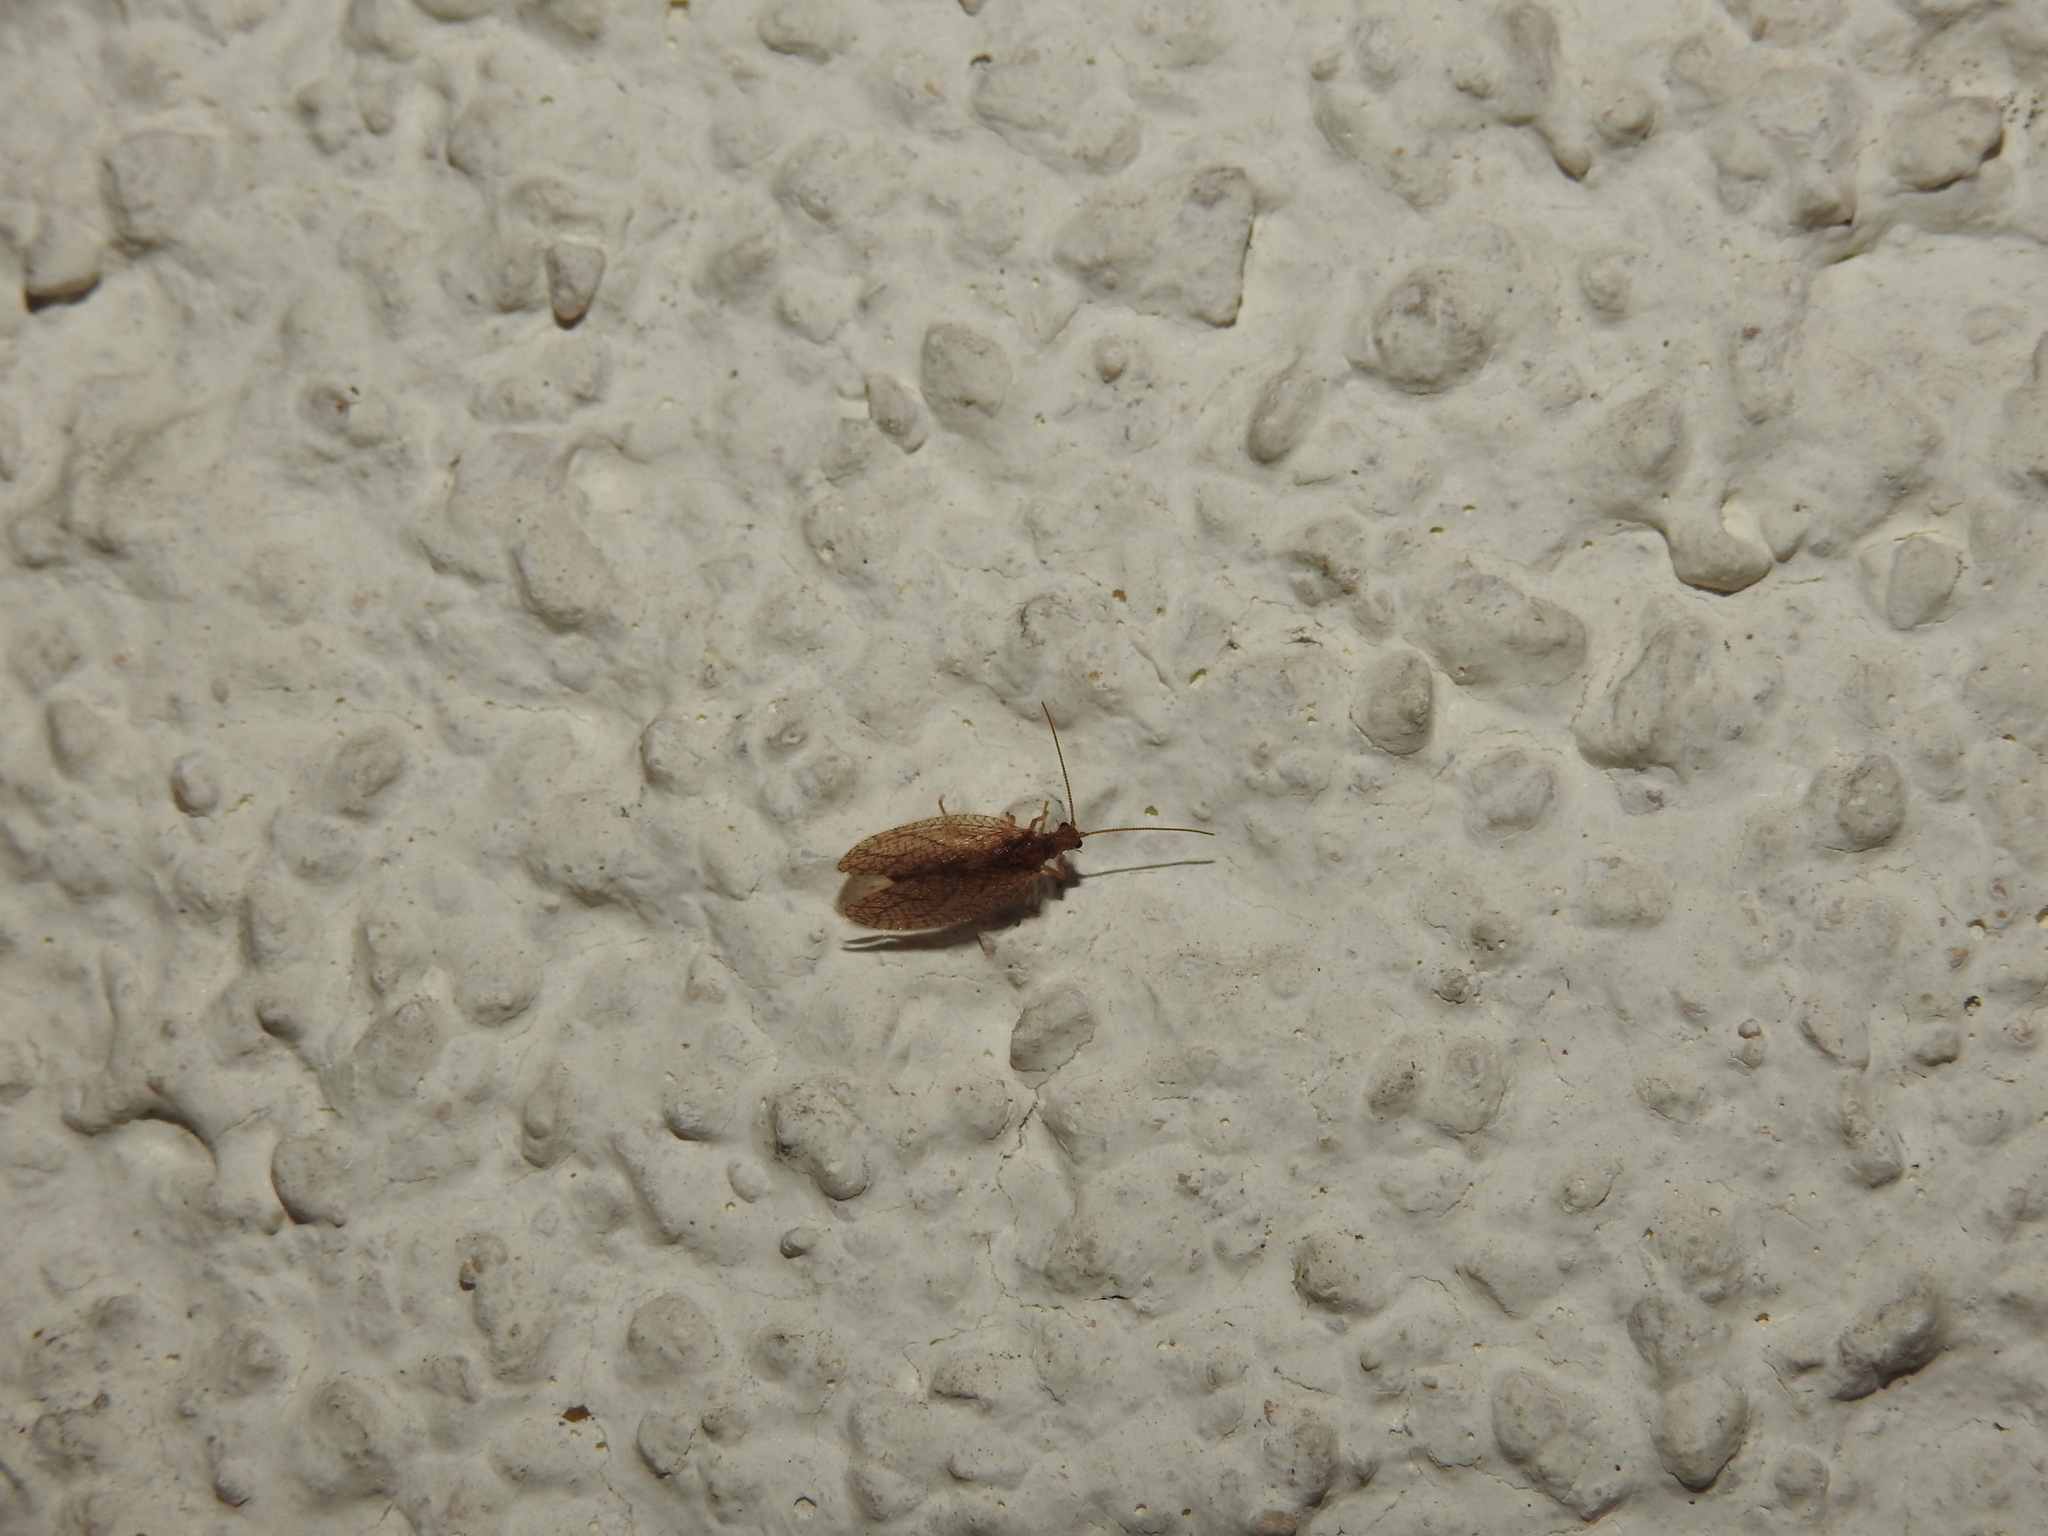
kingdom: Animalia
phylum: Arthropoda
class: Insecta
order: Neuroptera
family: Hemerobiidae
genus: Micromus
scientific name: Micromus angulatus
